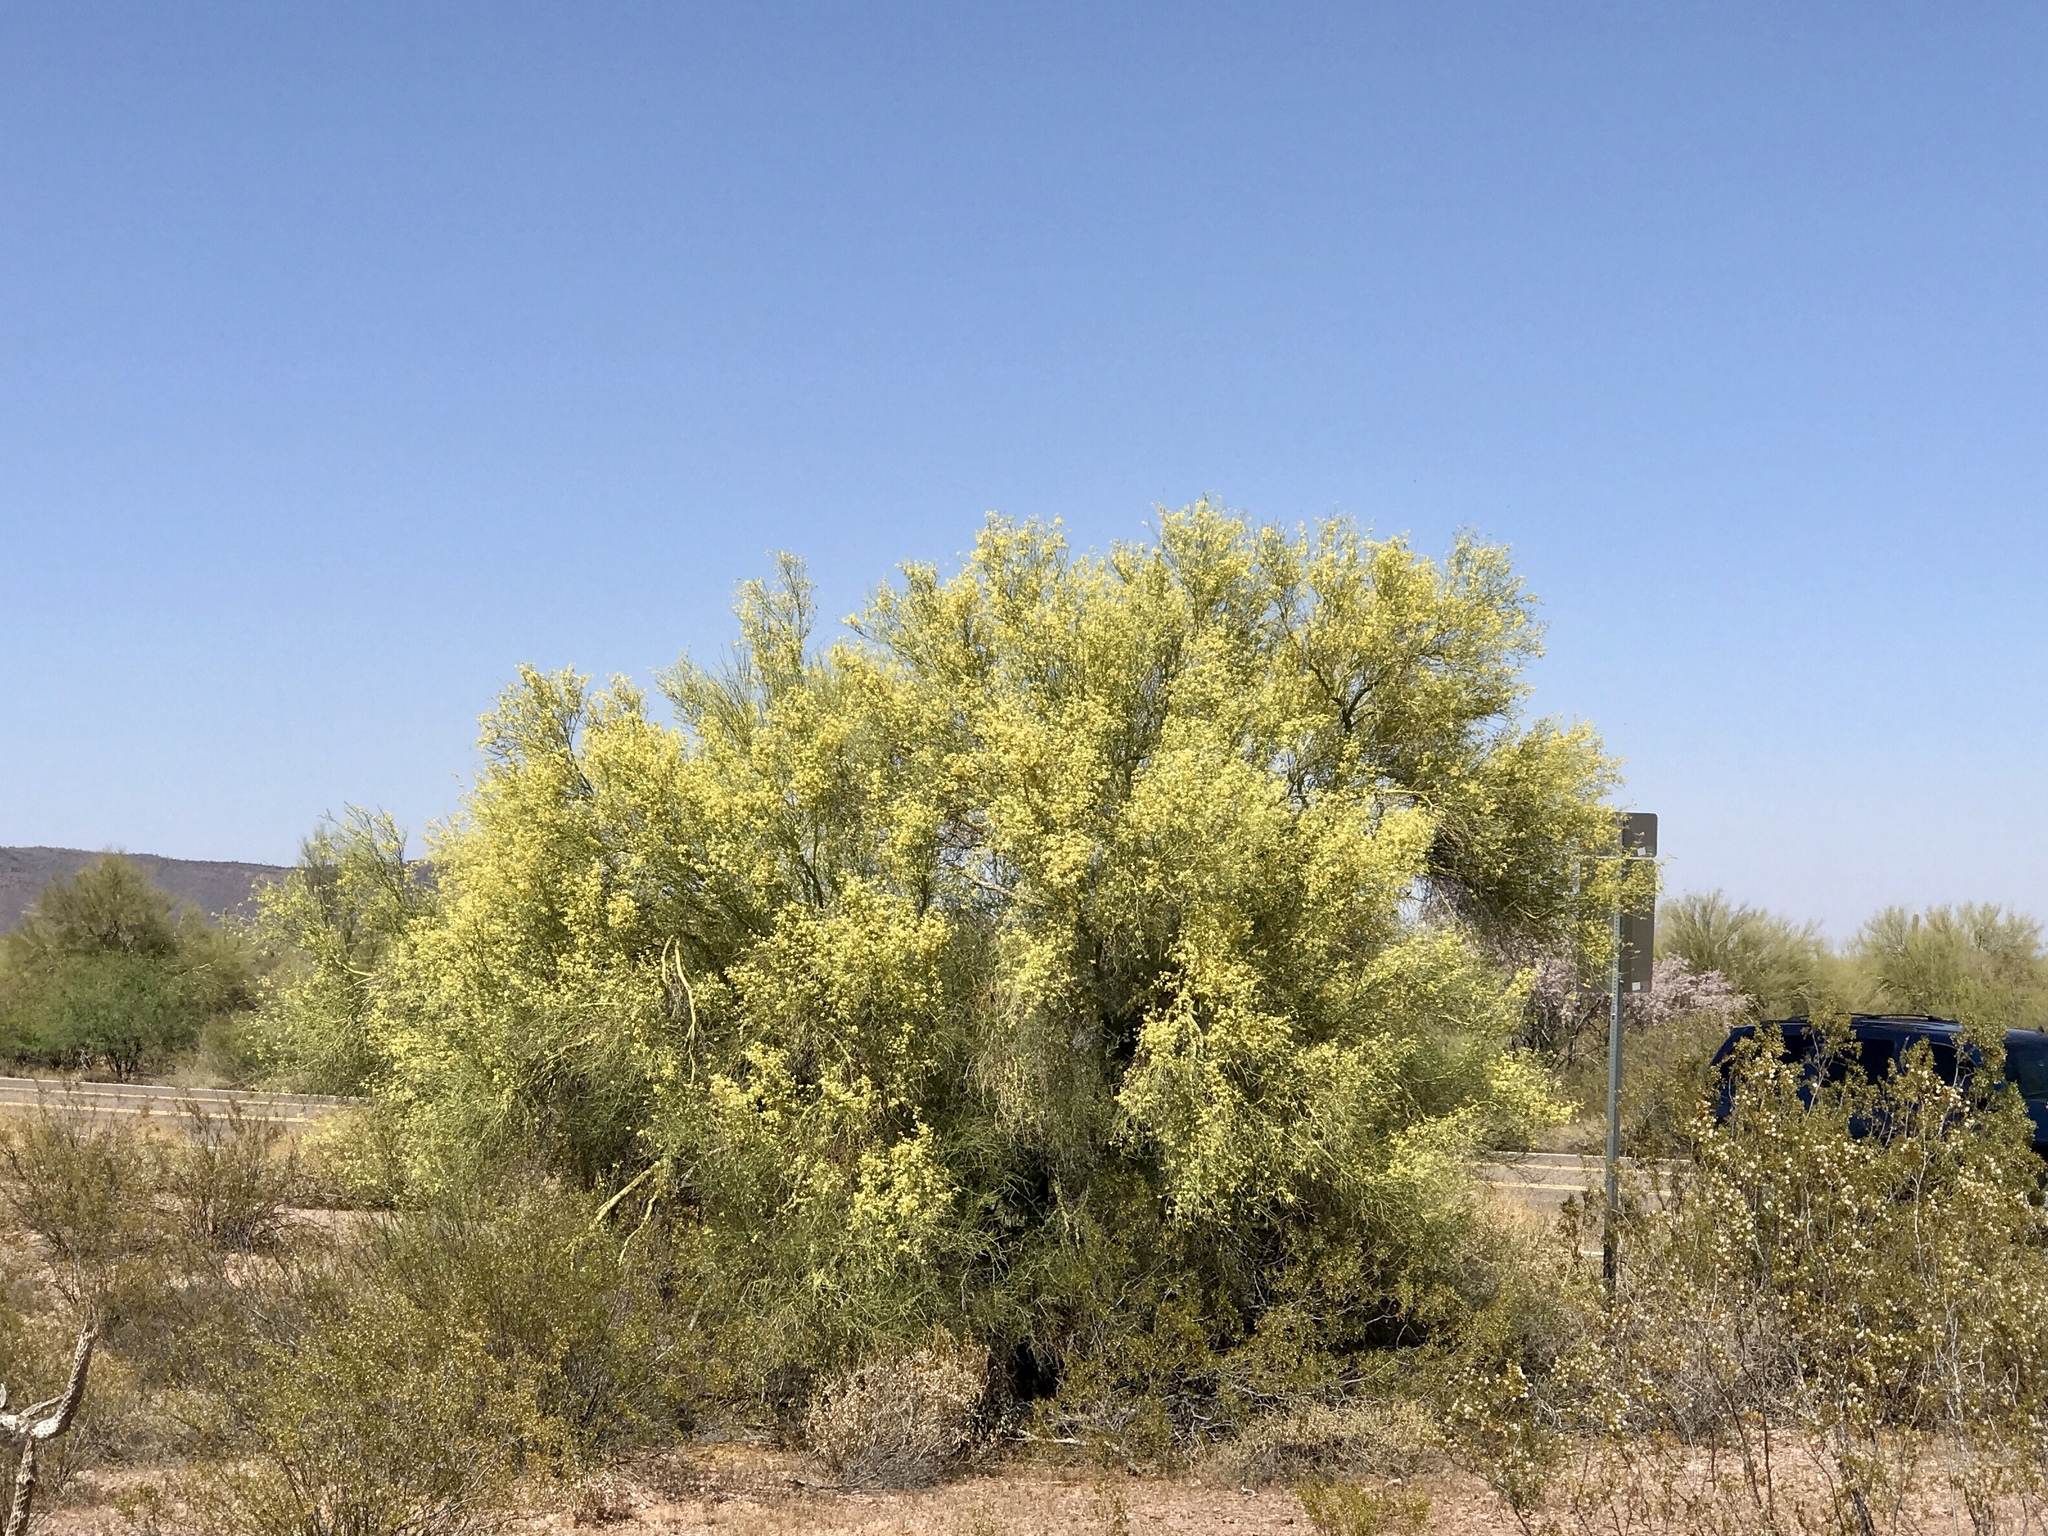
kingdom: Plantae
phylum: Tracheophyta
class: Magnoliopsida
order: Fabales
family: Fabaceae
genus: Parkinsonia
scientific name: Parkinsonia microphylla
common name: Yellow paloverde
